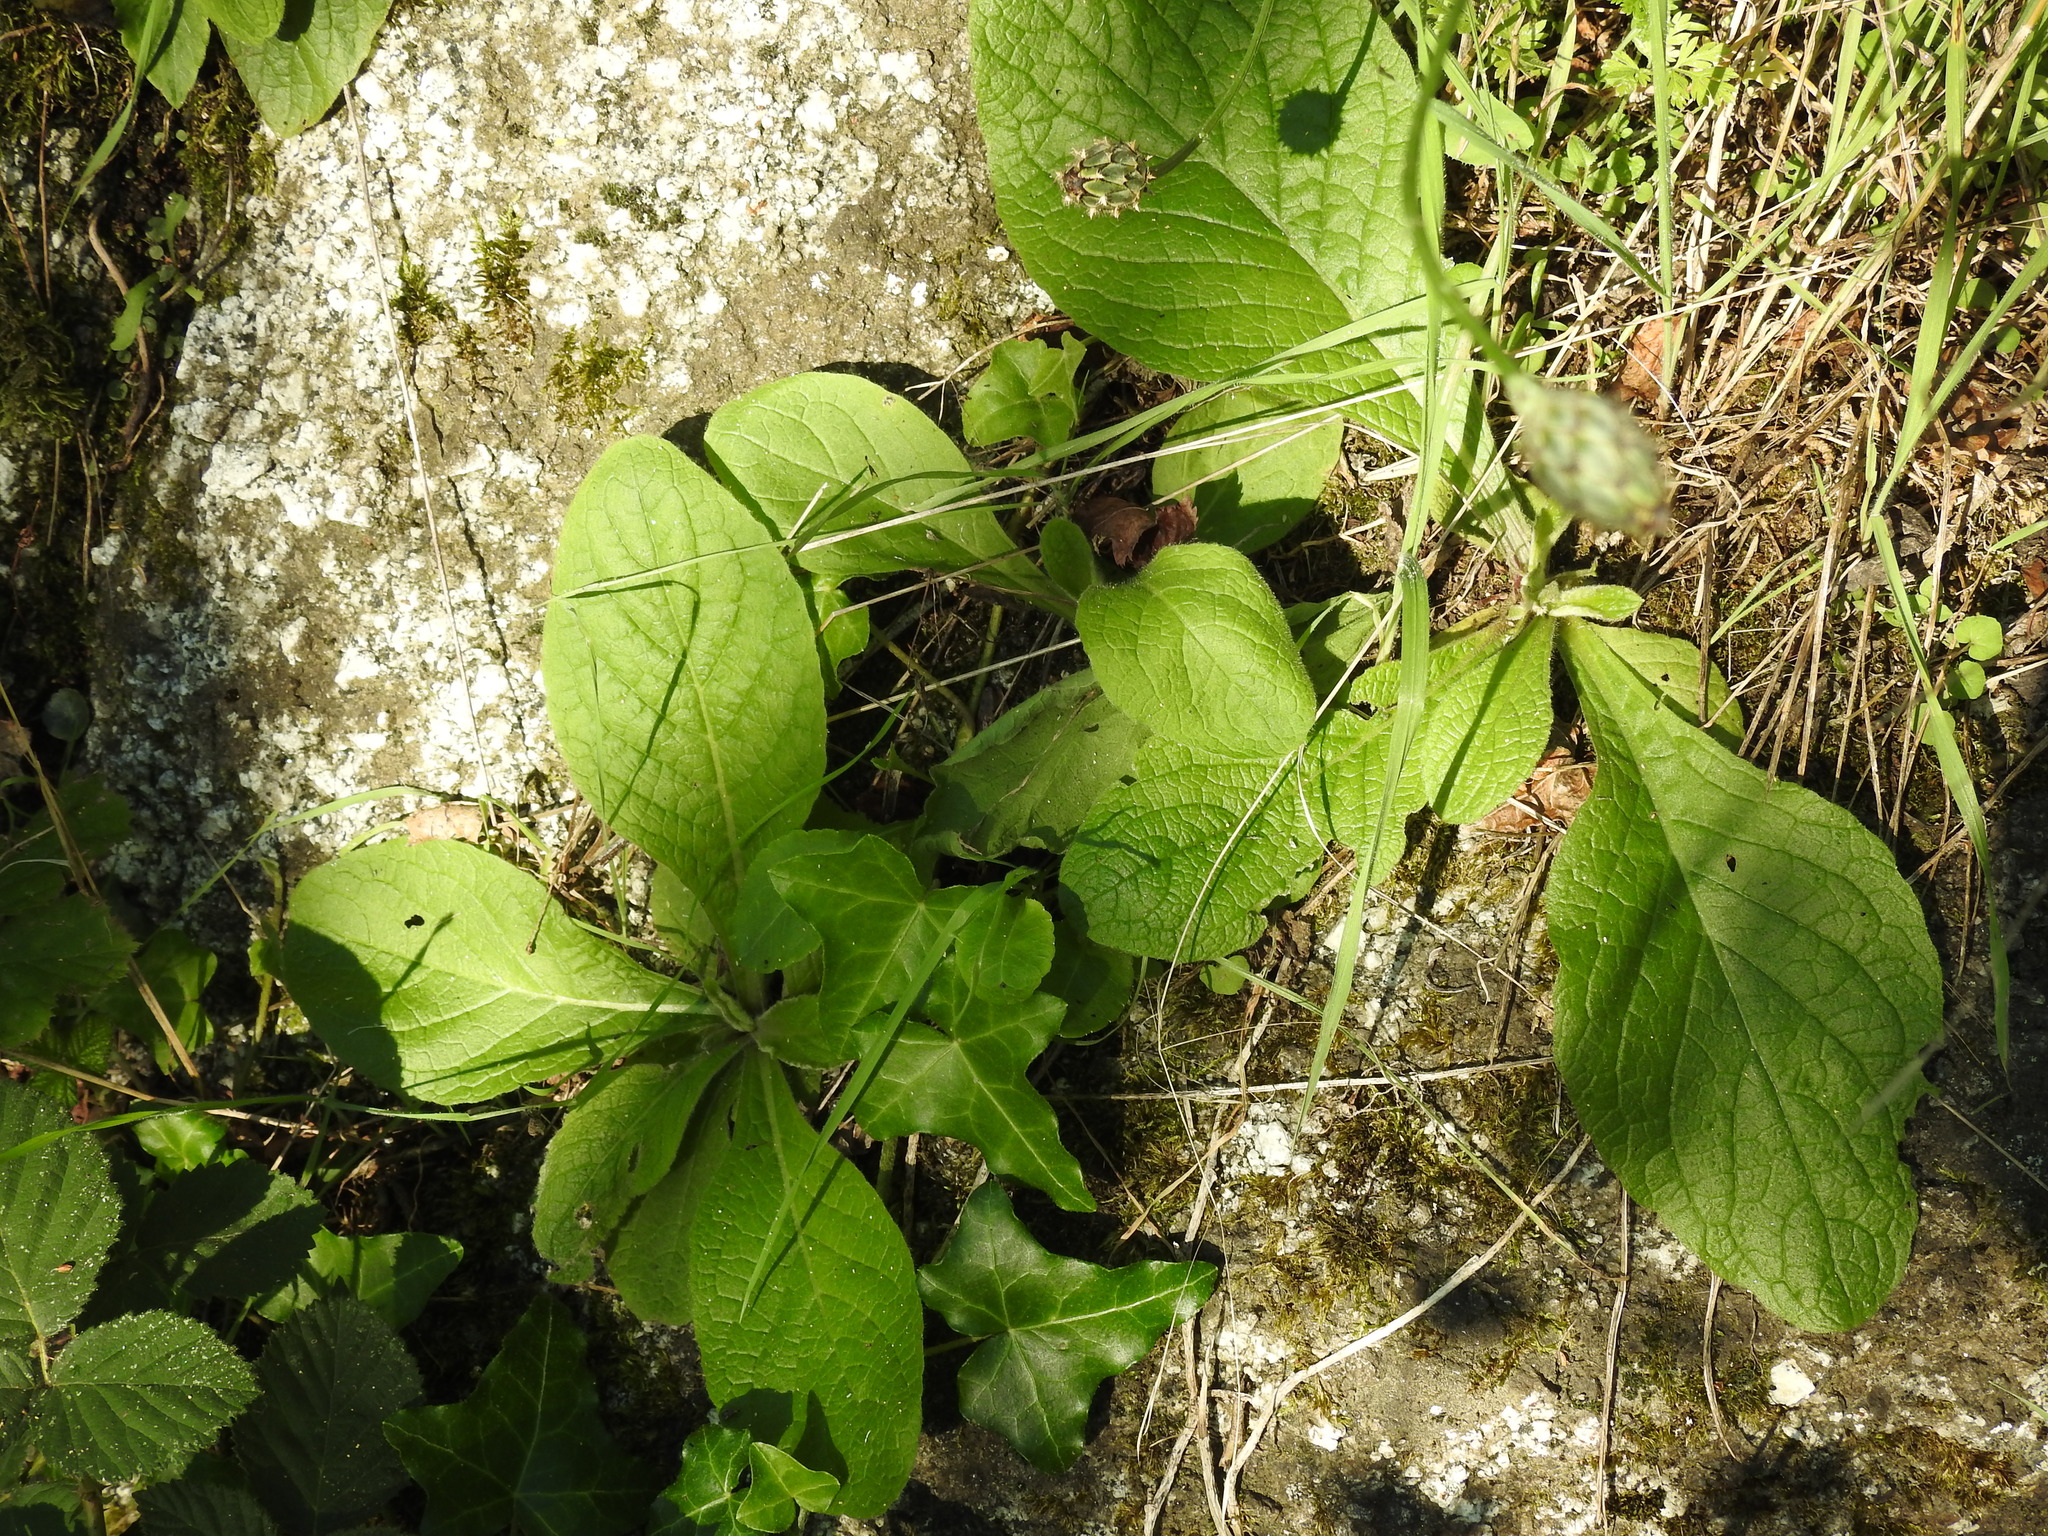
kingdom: Plantae
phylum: Tracheophyta
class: Magnoliopsida
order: Boraginales
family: Boraginaceae
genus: Borago
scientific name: Borago officinalis
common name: Borage
